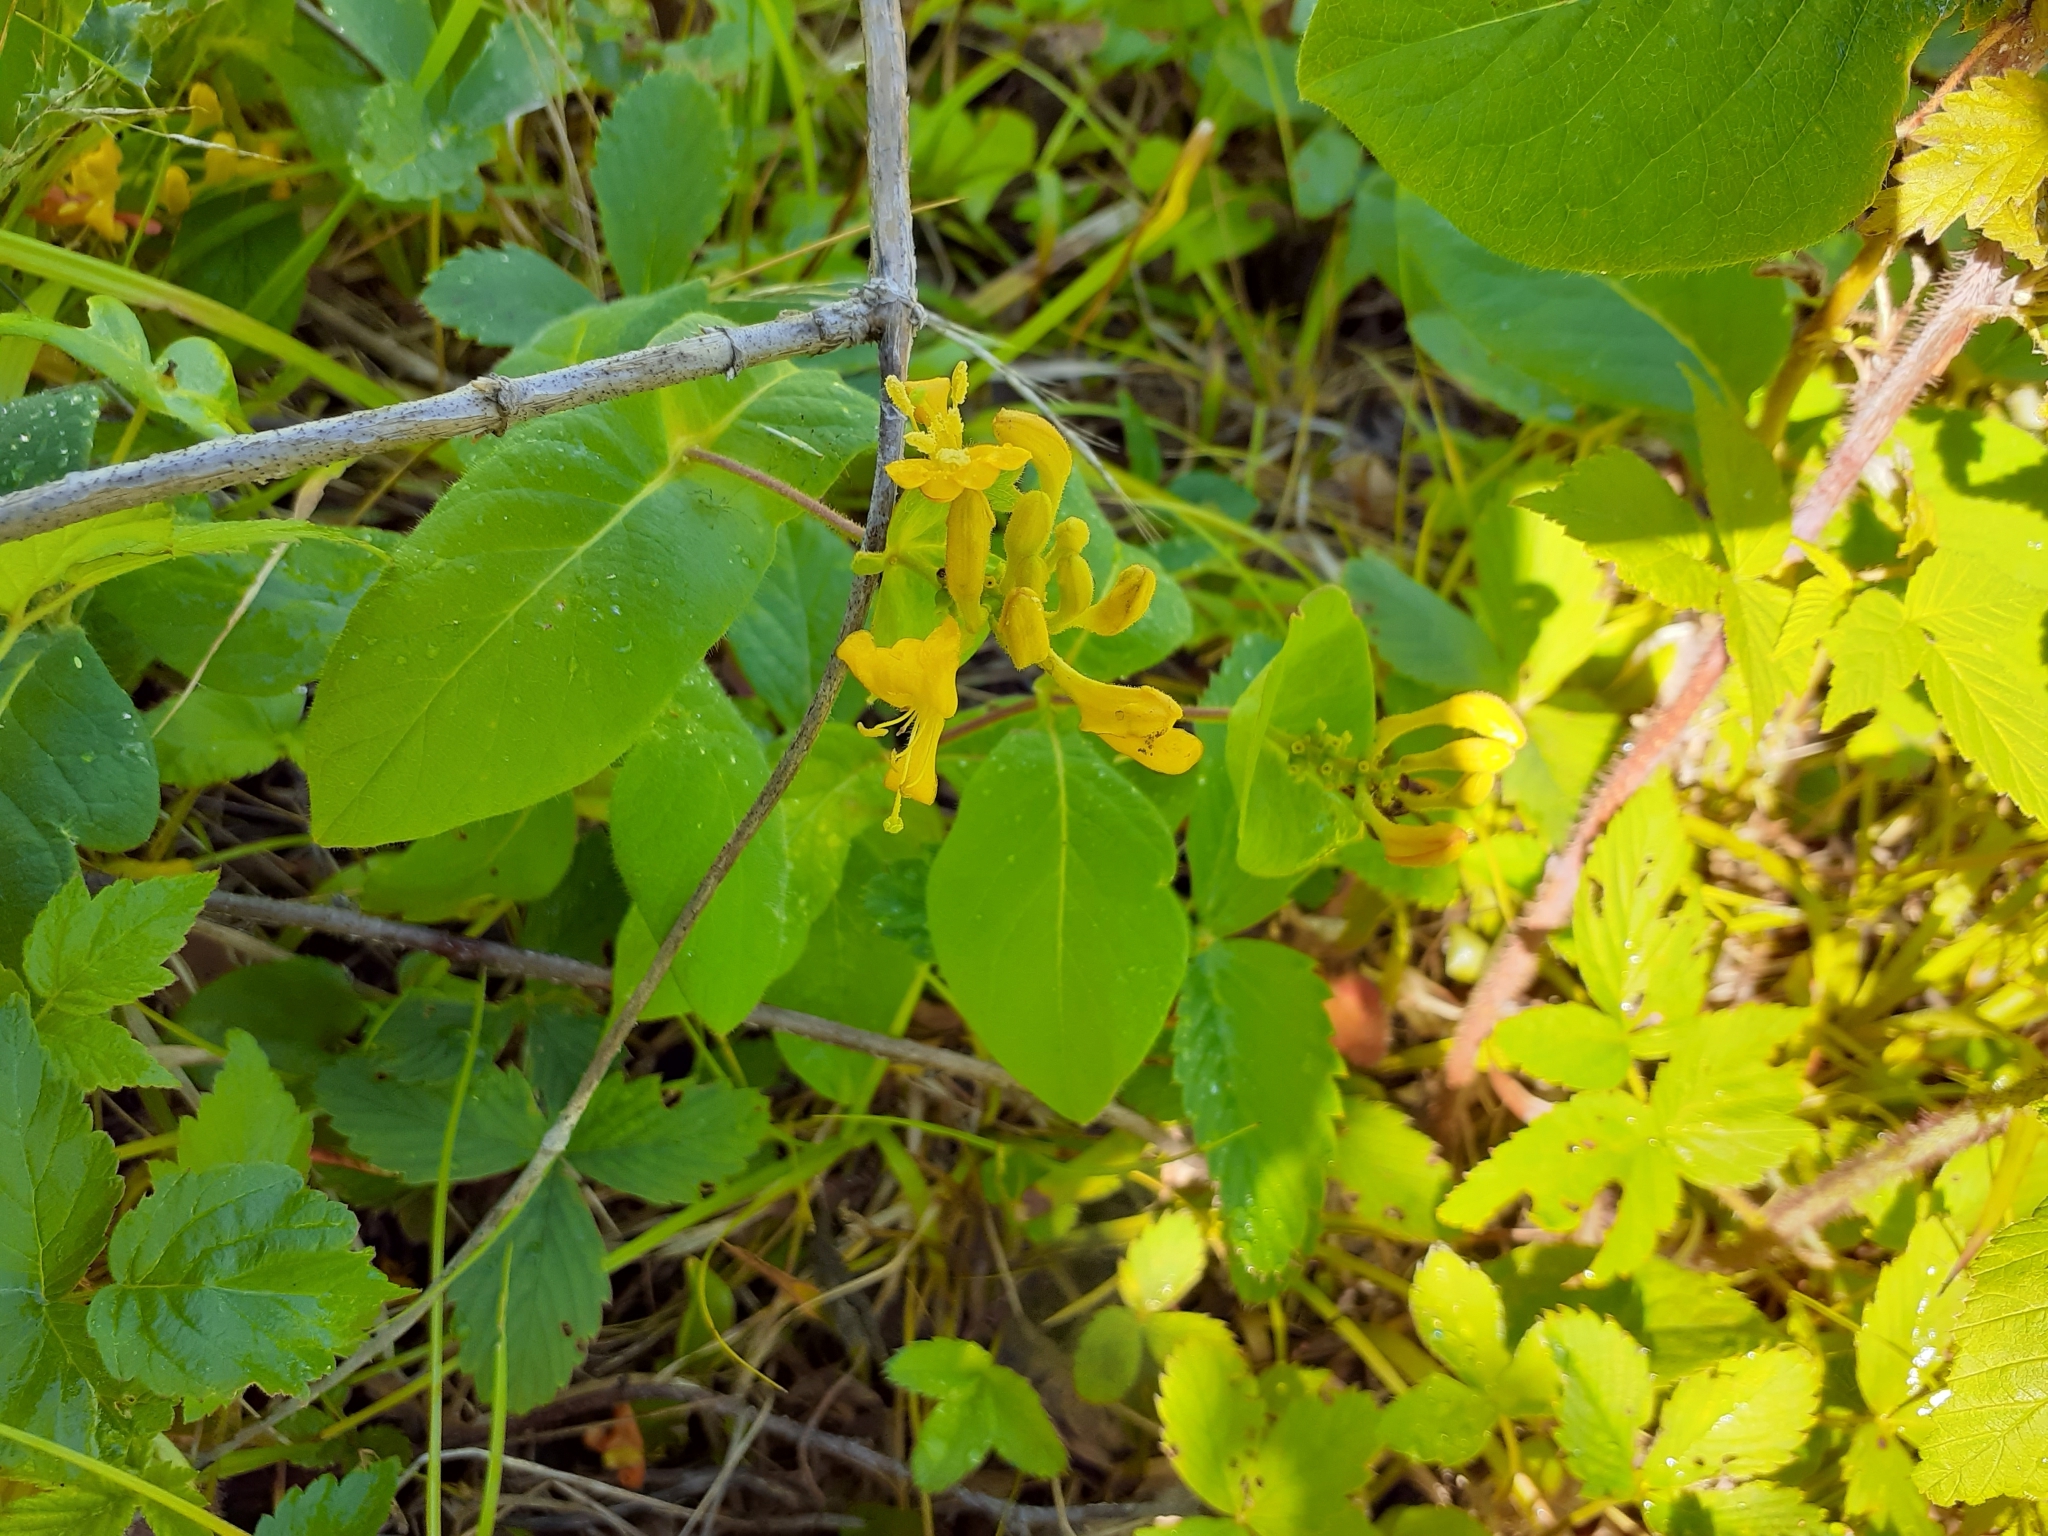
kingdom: Plantae
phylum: Tracheophyta
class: Magnoliopsida
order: Dipsacales
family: Caprifoliaceae
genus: Lonicera
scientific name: Lonicera hirsuta
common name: Hairy honeysuckle
